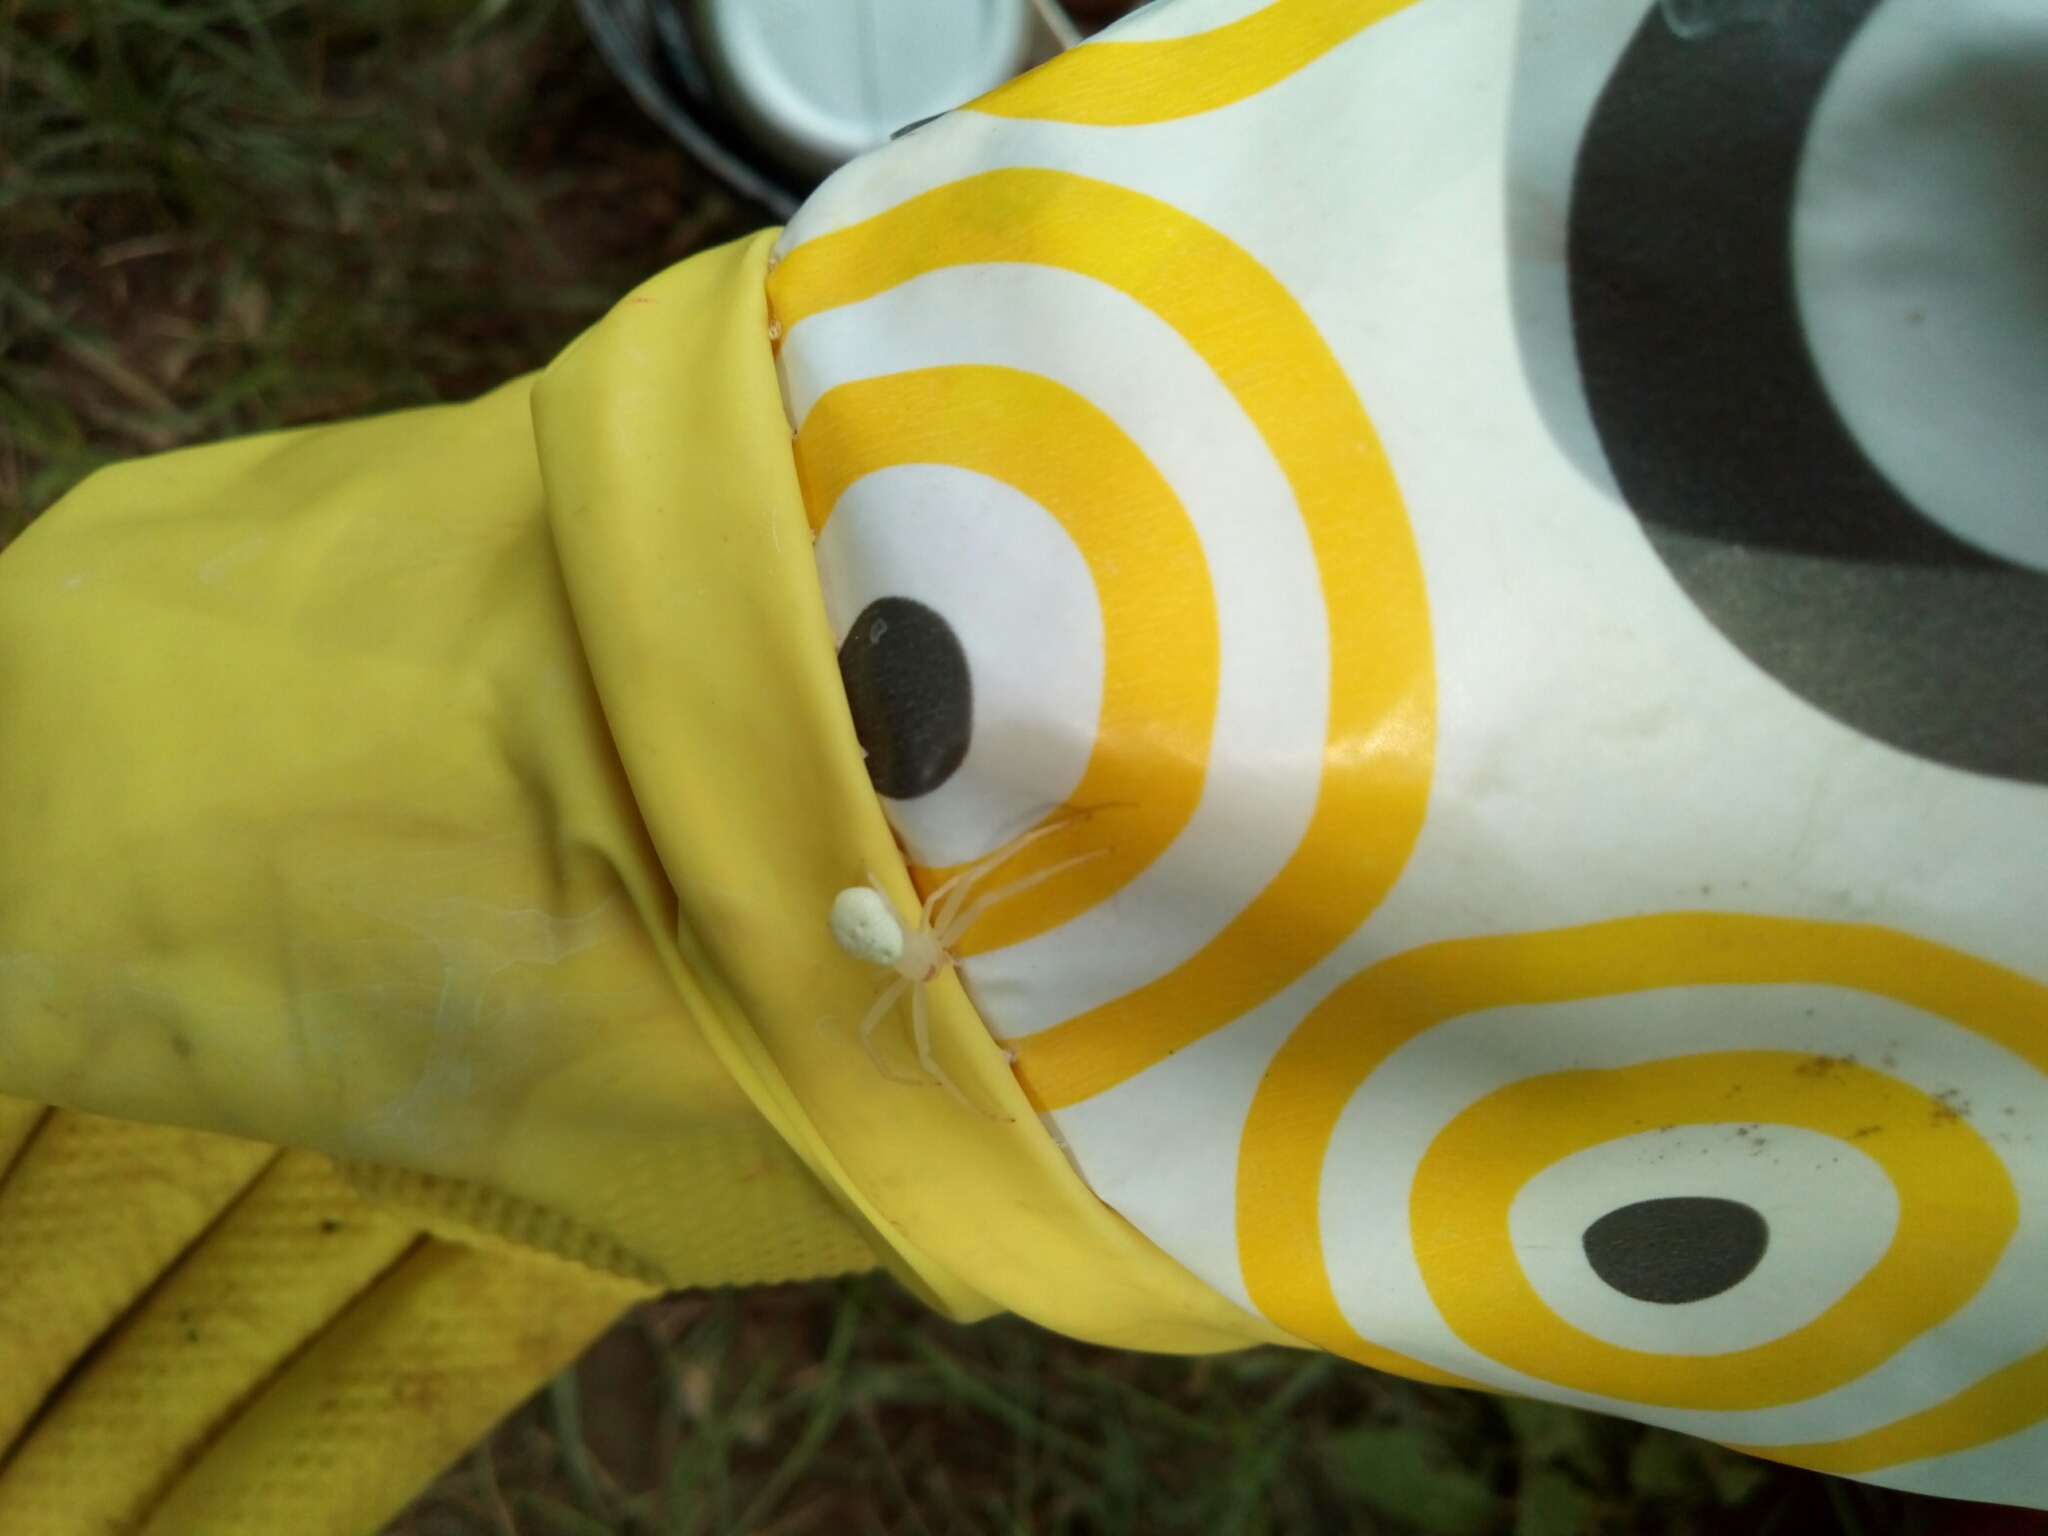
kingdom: Animalia
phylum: Arthropoda
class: Arachnida
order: Araneae
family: Thomisidae
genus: Misumessus
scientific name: Misumessus oblongus
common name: American green crab spider
